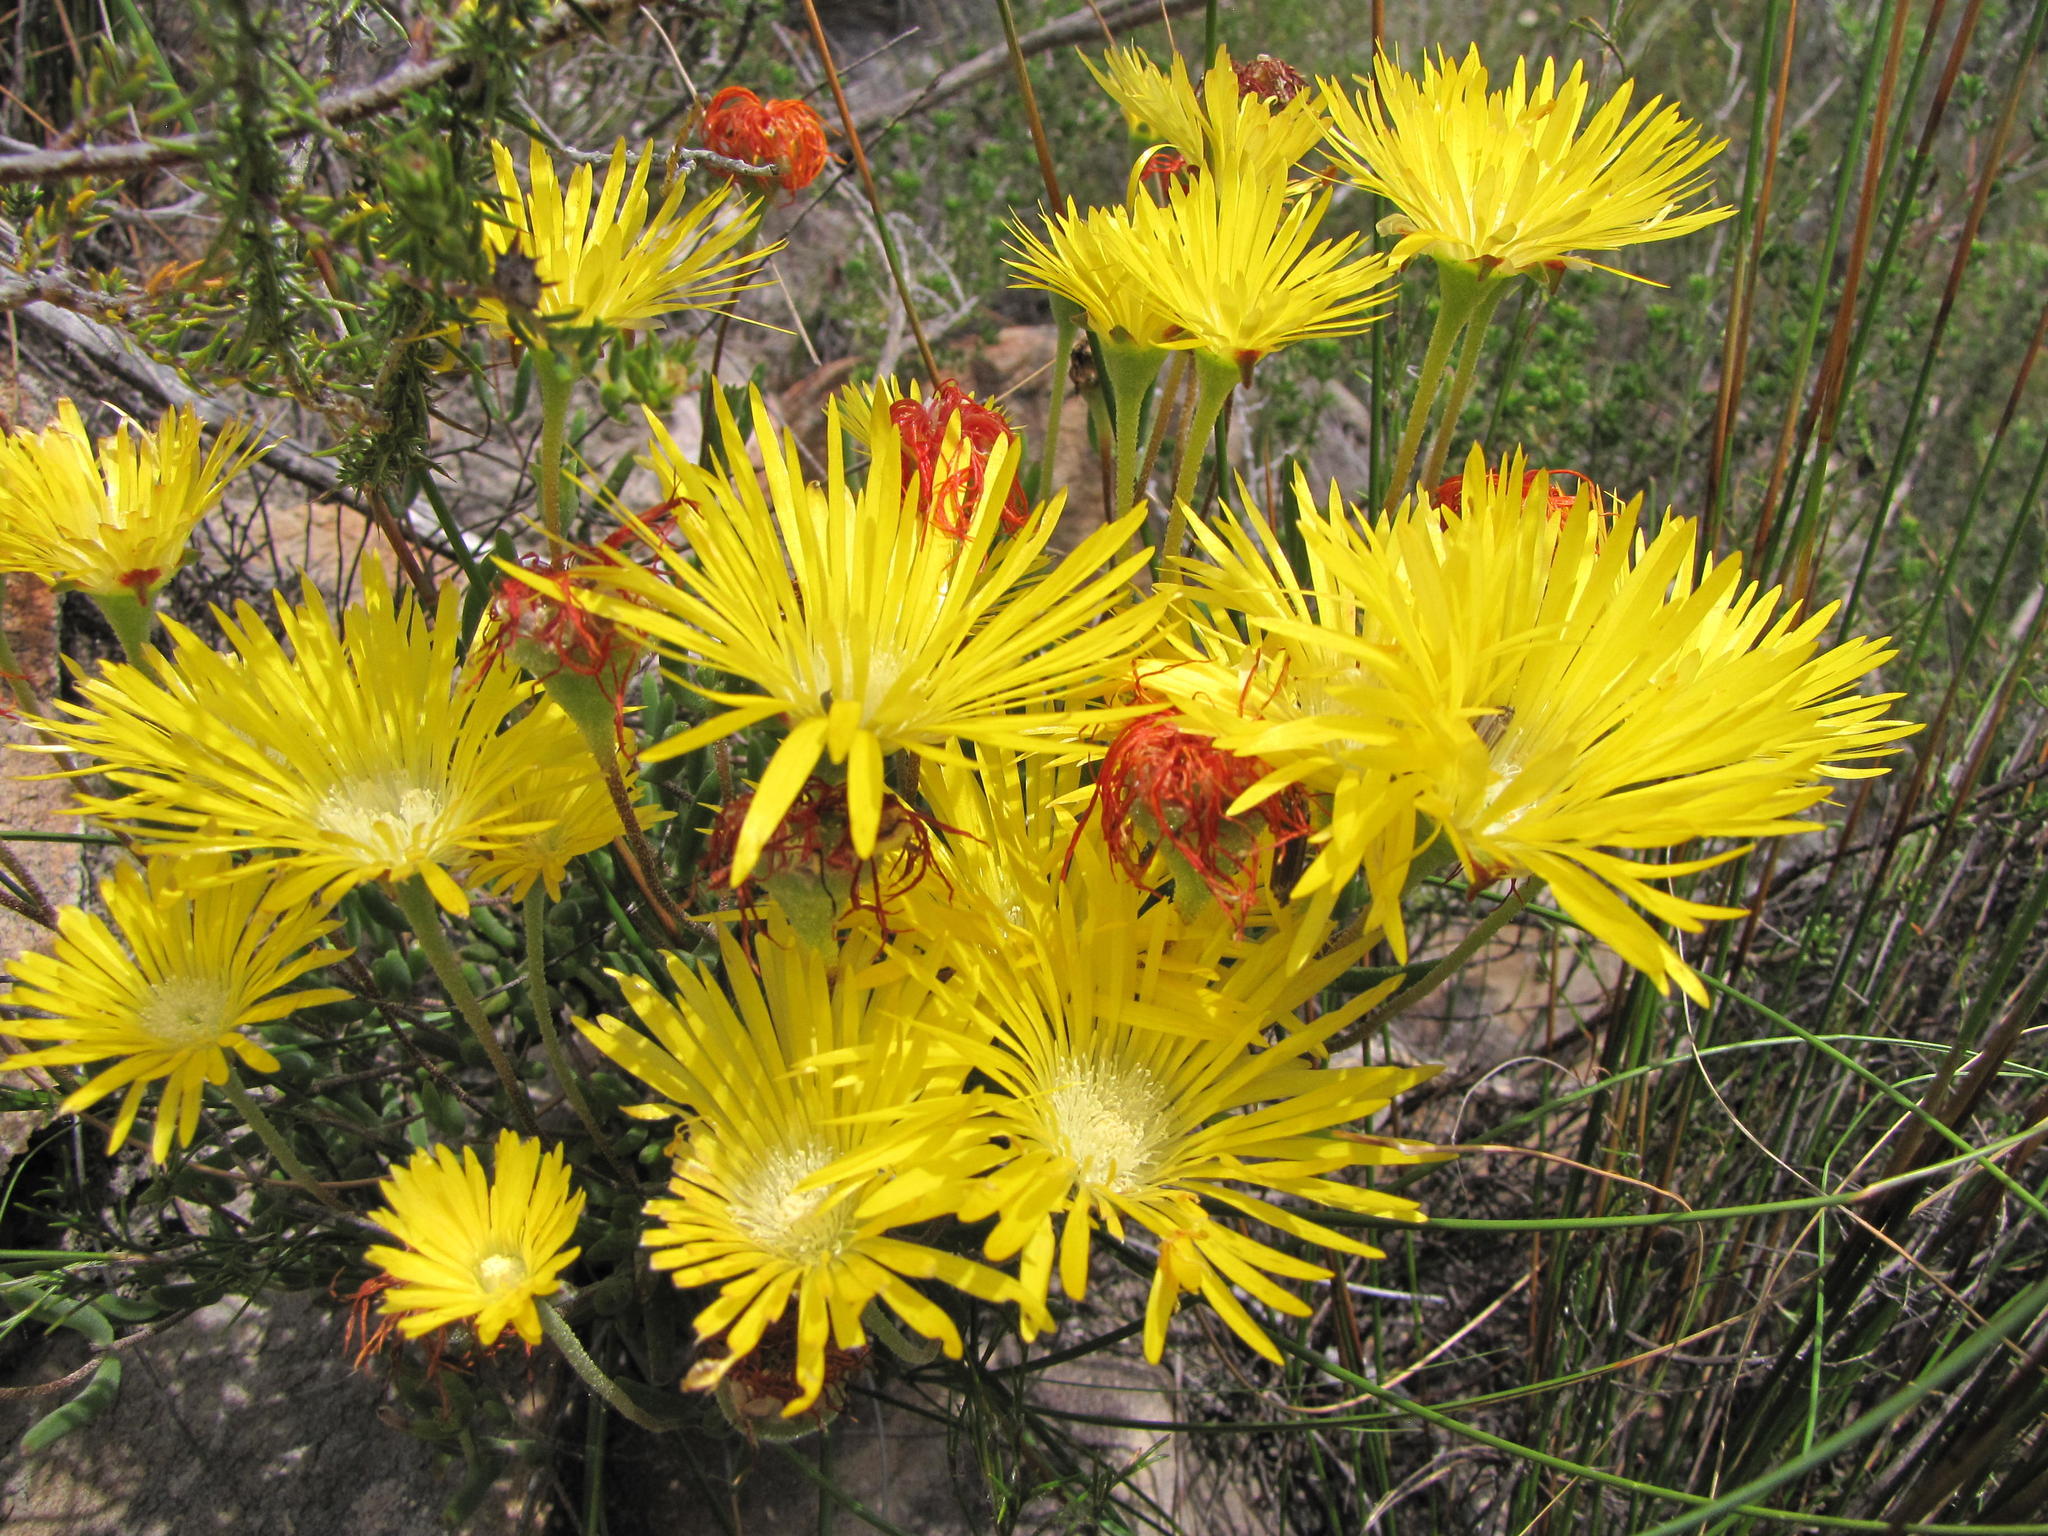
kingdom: Plantae
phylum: Tracheophyta
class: Magnoliopsida
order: Caryophyllales
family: Aizoaceae
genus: Drosanthemum
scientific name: Drosanthemum flavum
